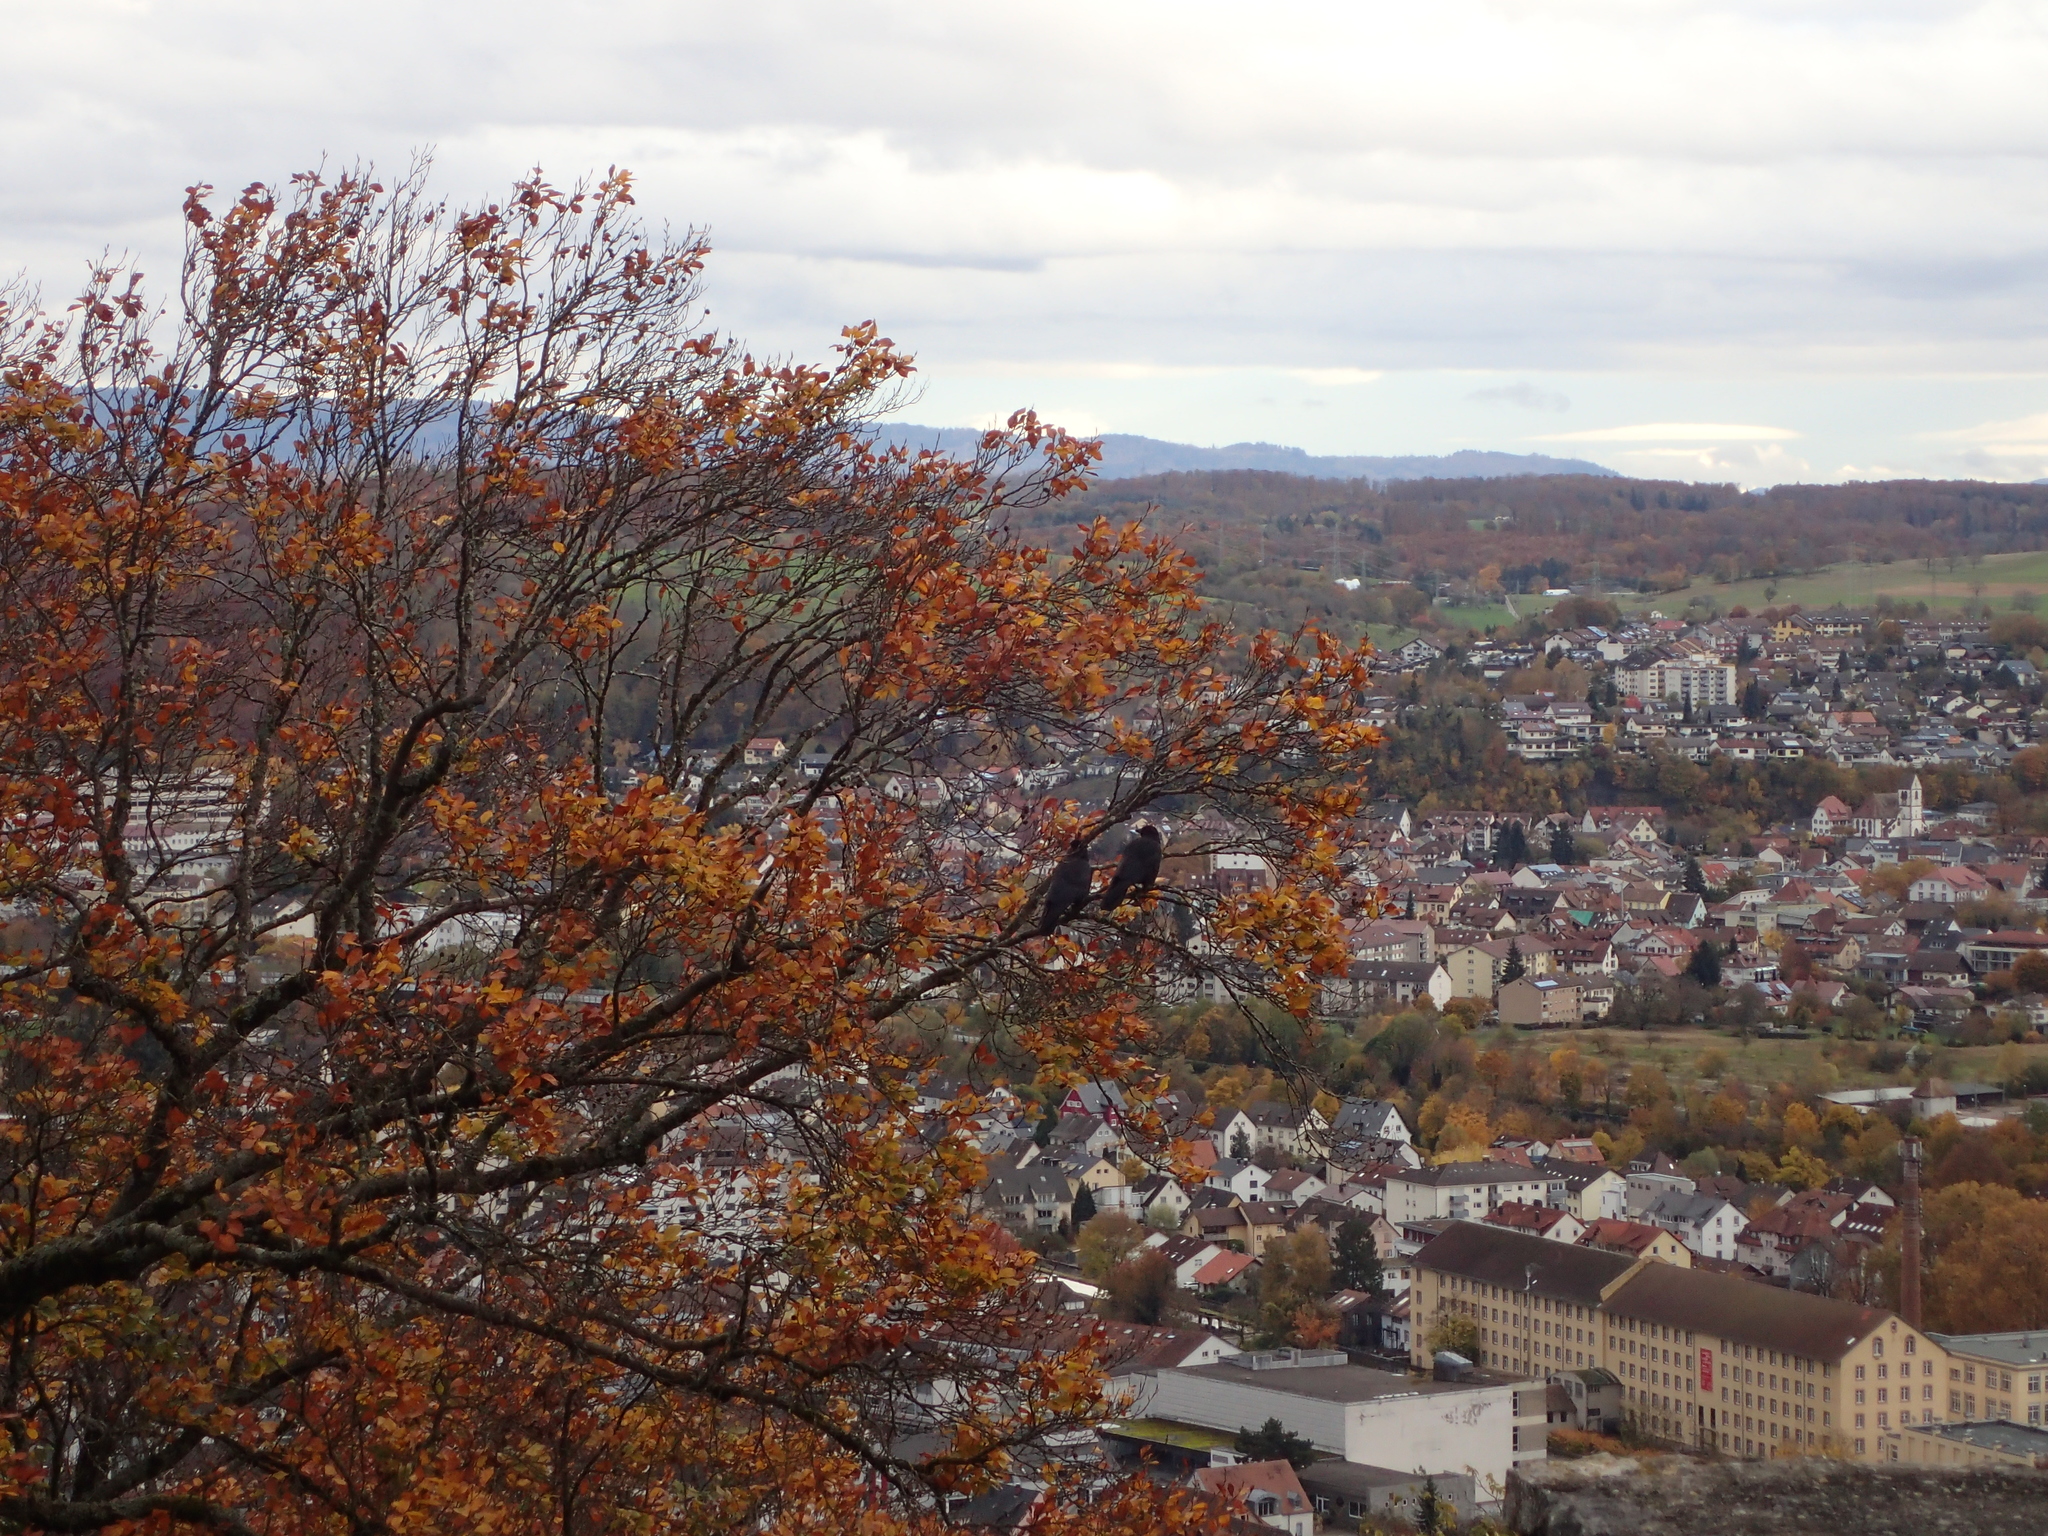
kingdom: Animalia
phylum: Chordata
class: Aves
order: Passeriformes
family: Corvidae
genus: Corvus
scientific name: Corvus corone
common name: Carrion crow
